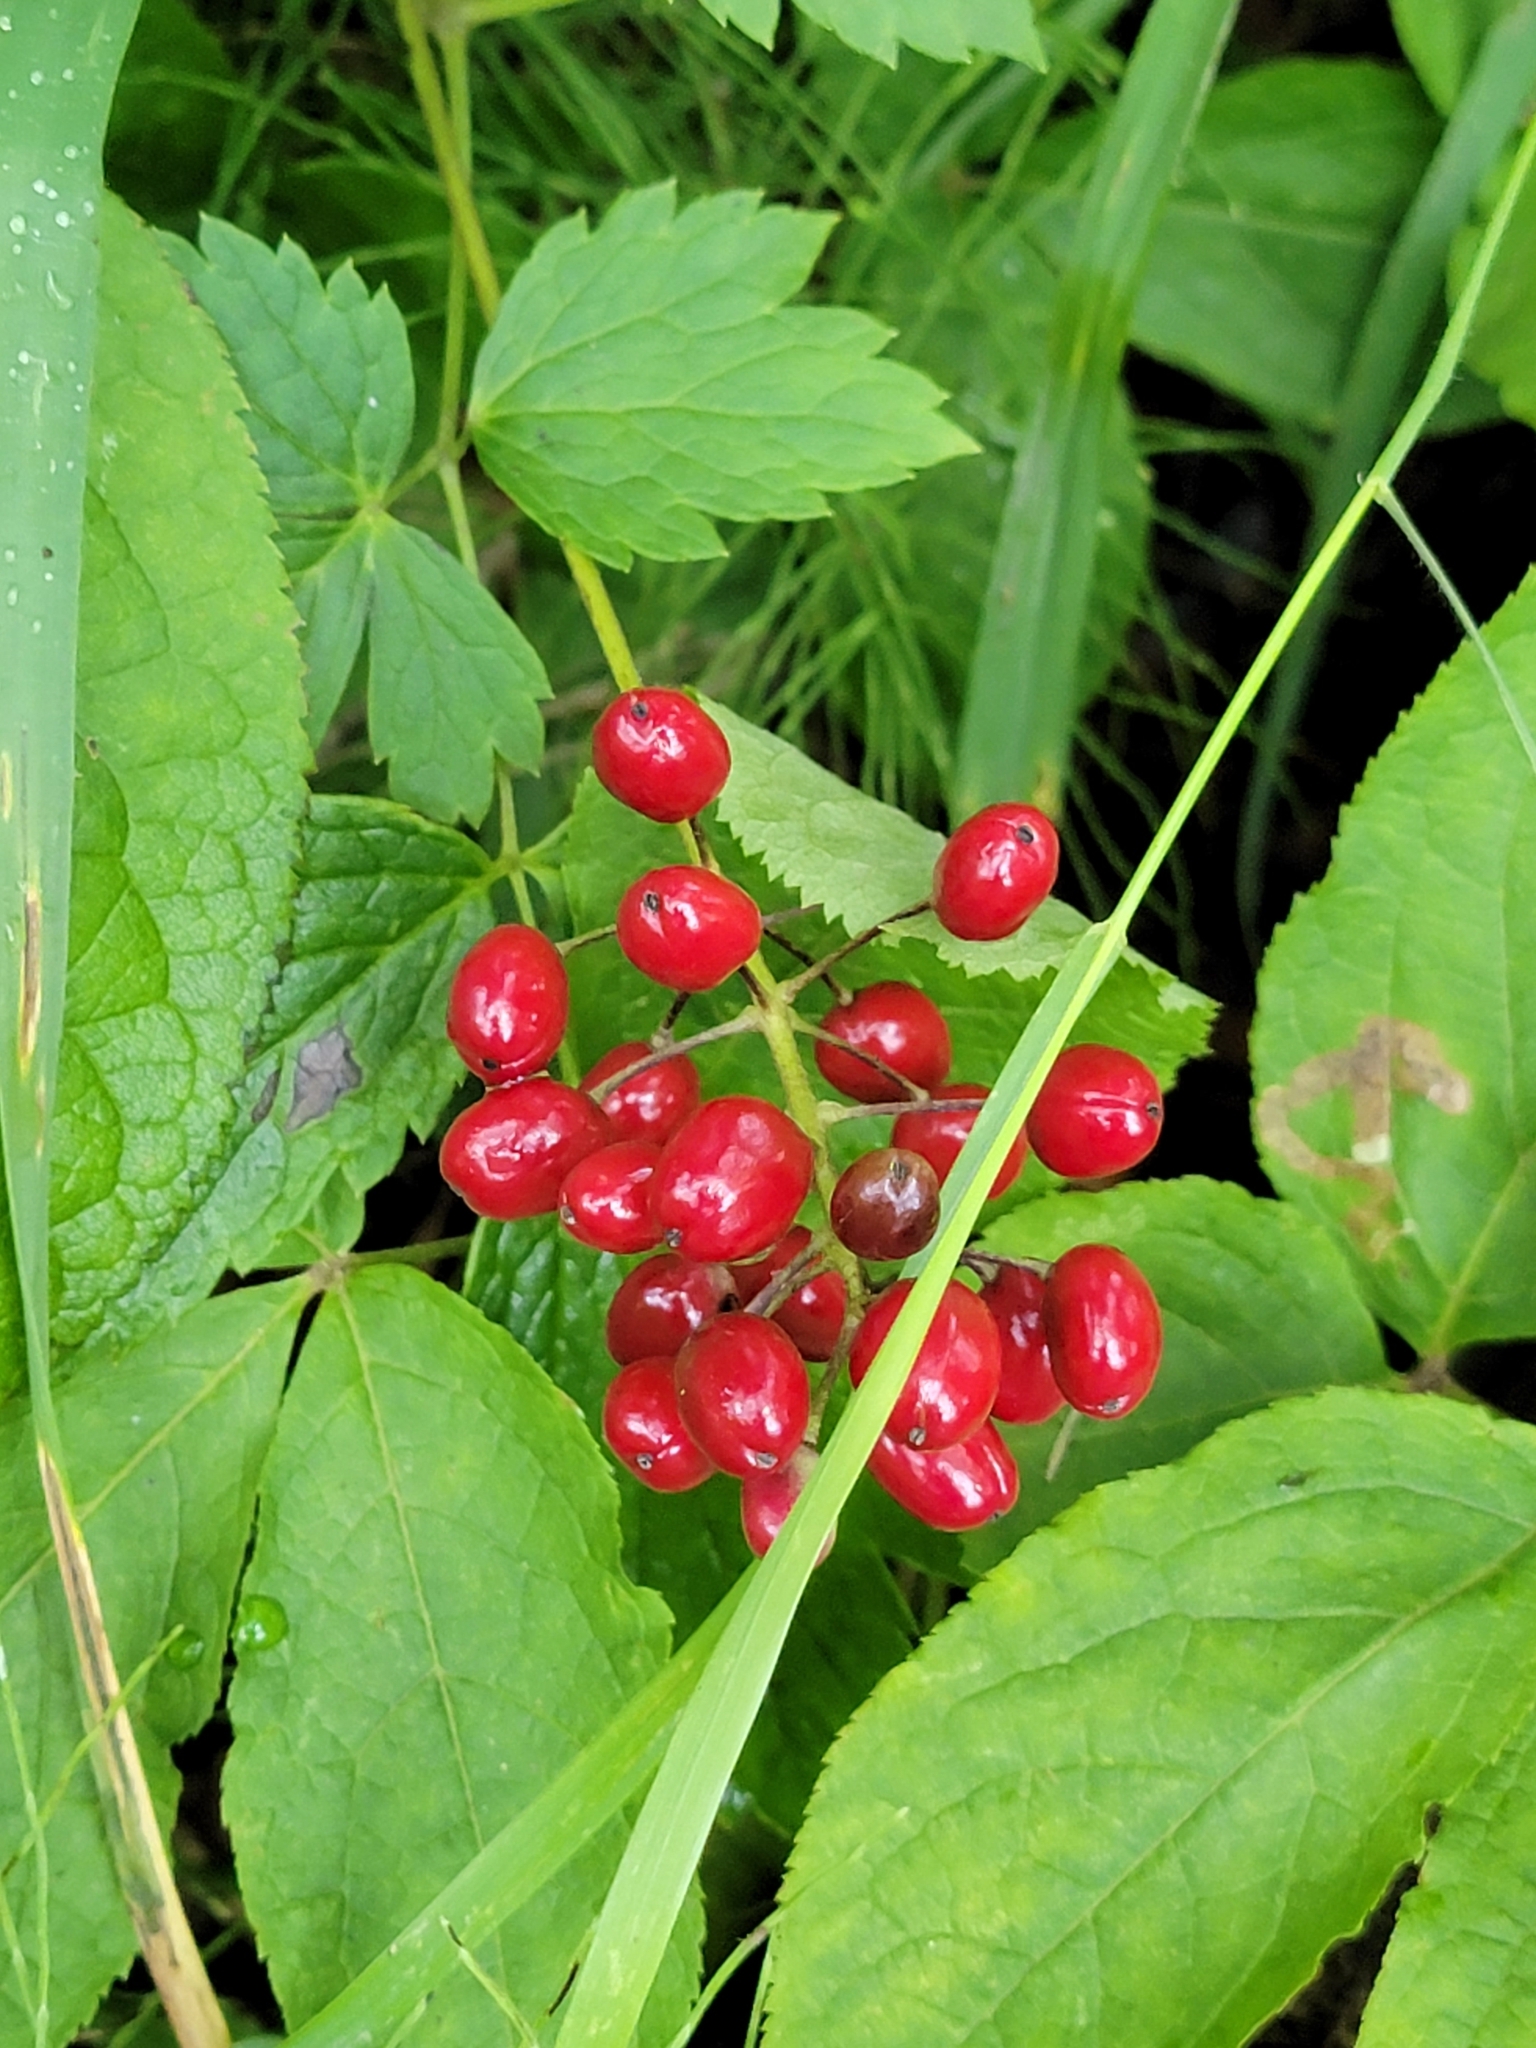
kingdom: Plantae
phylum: Tracheophyta
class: Magnoliopsida
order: Ranunculales
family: Ranunculaceae
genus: Actaea
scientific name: Actaea rubra
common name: Red baneberry
